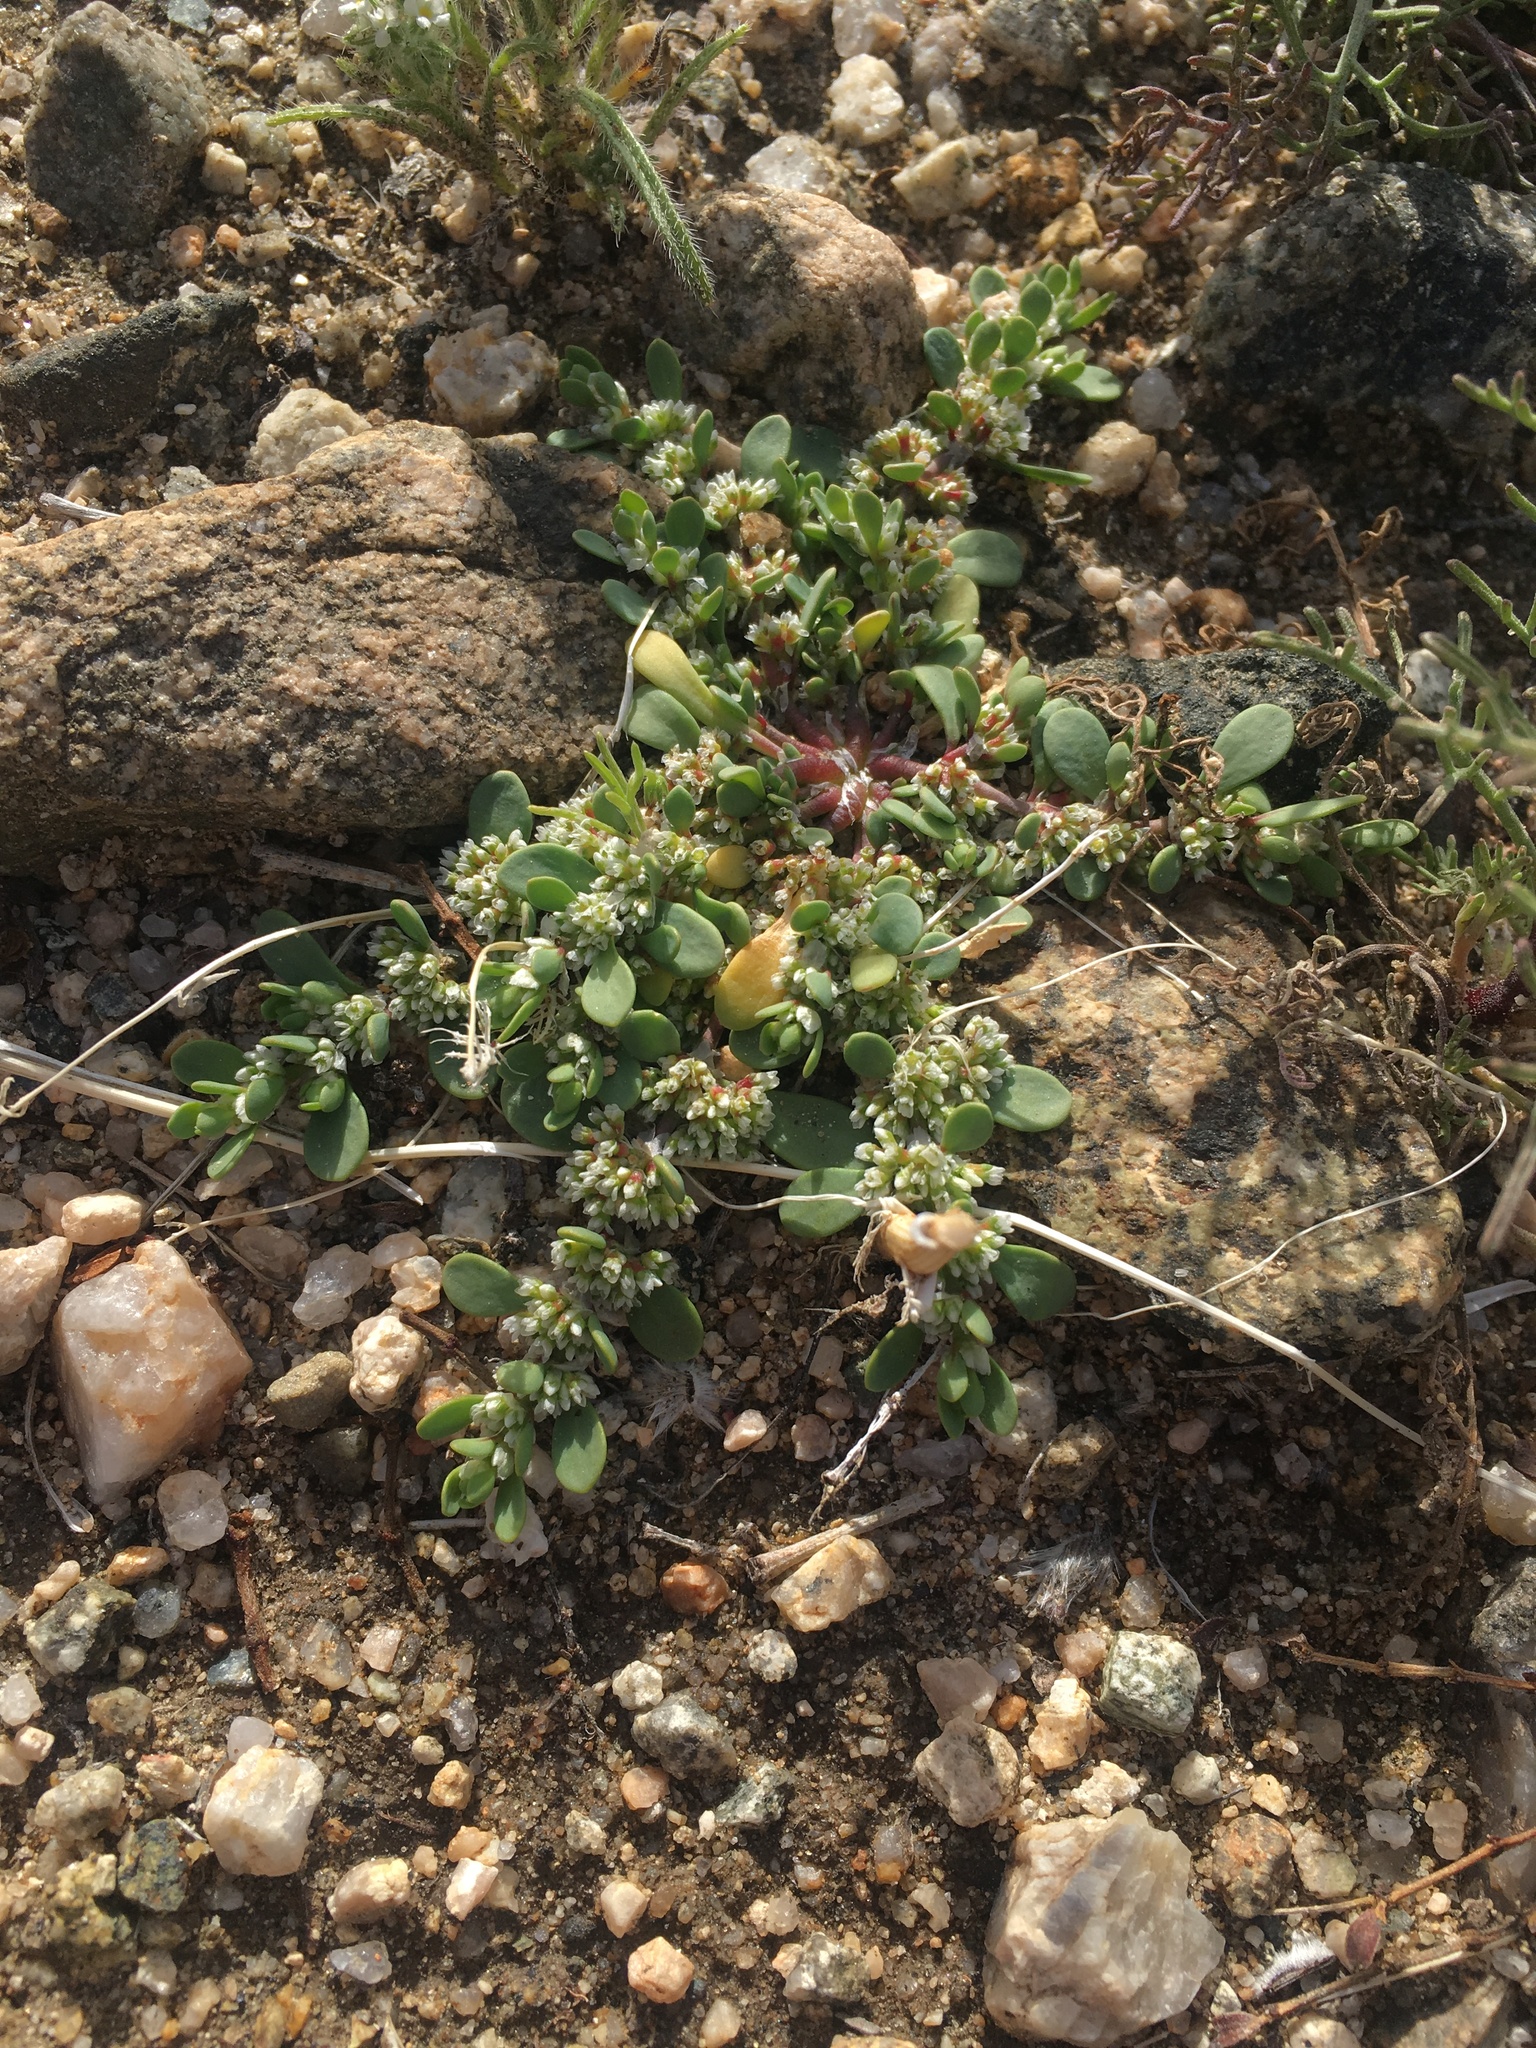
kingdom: Plantae
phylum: Tracheophyta
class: Magnoliopsida
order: Caryophyllales
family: Caryophyllaceae
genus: Achyronychia
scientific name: Achyronychia cooperi
